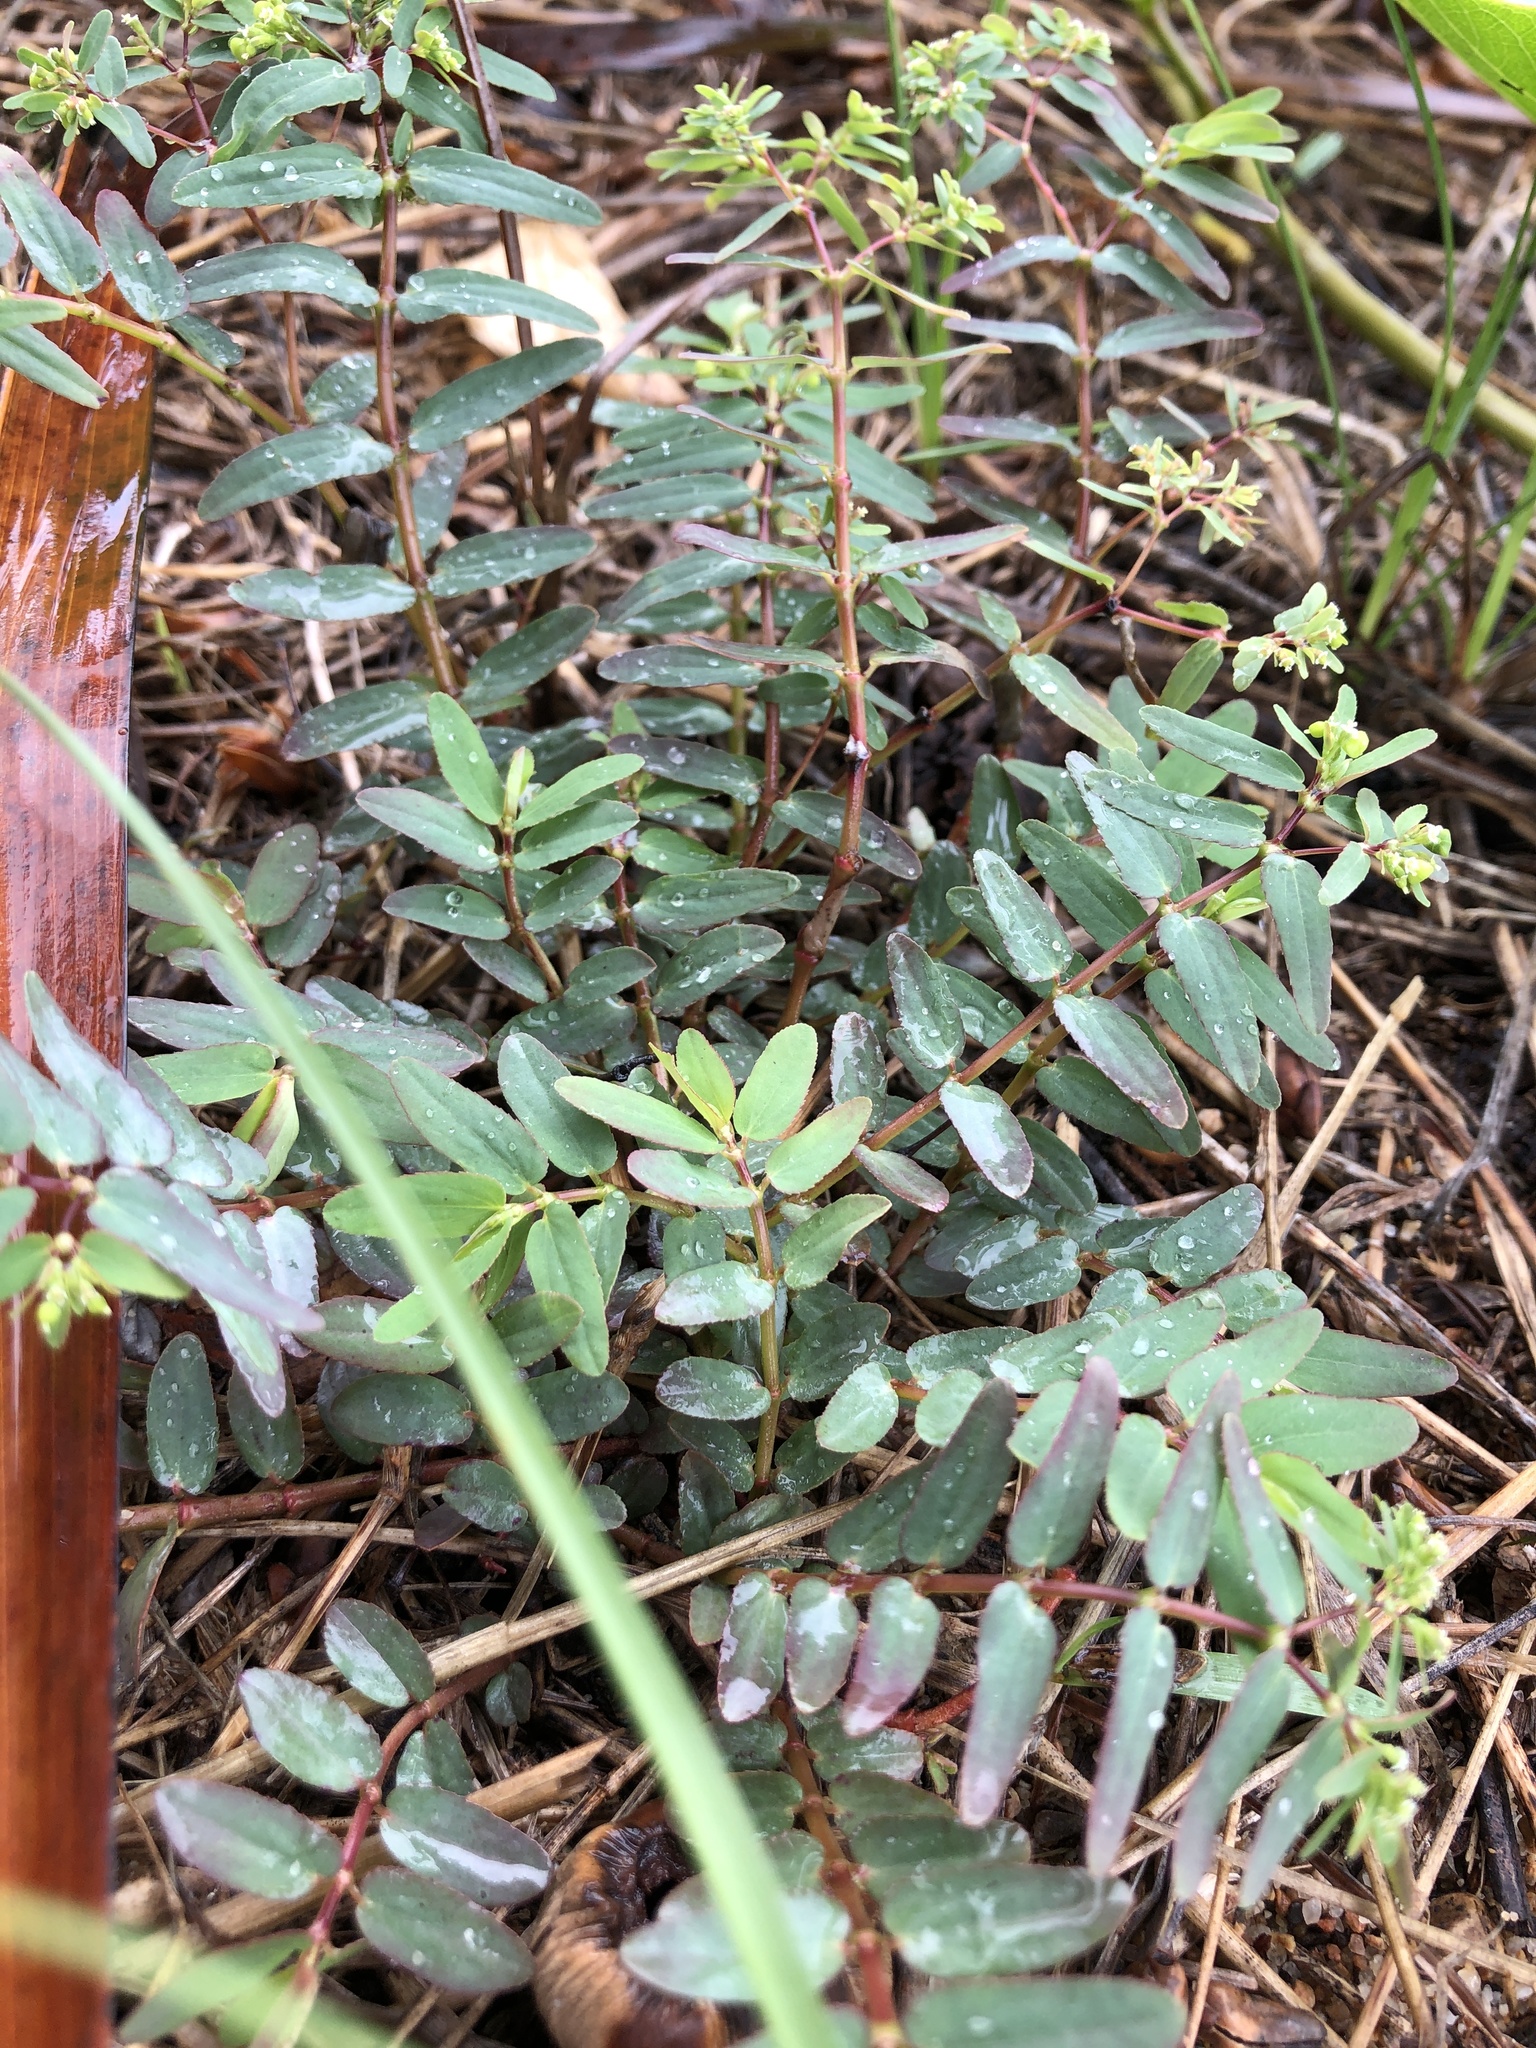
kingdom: Plantae
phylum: Tracheophyta
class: Magnoliopsida
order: Malpighiales
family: Euphorbiaceae
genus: Euphorbia
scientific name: Euphorbia hyssopifolia
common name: Hyssopleaf sandmat
